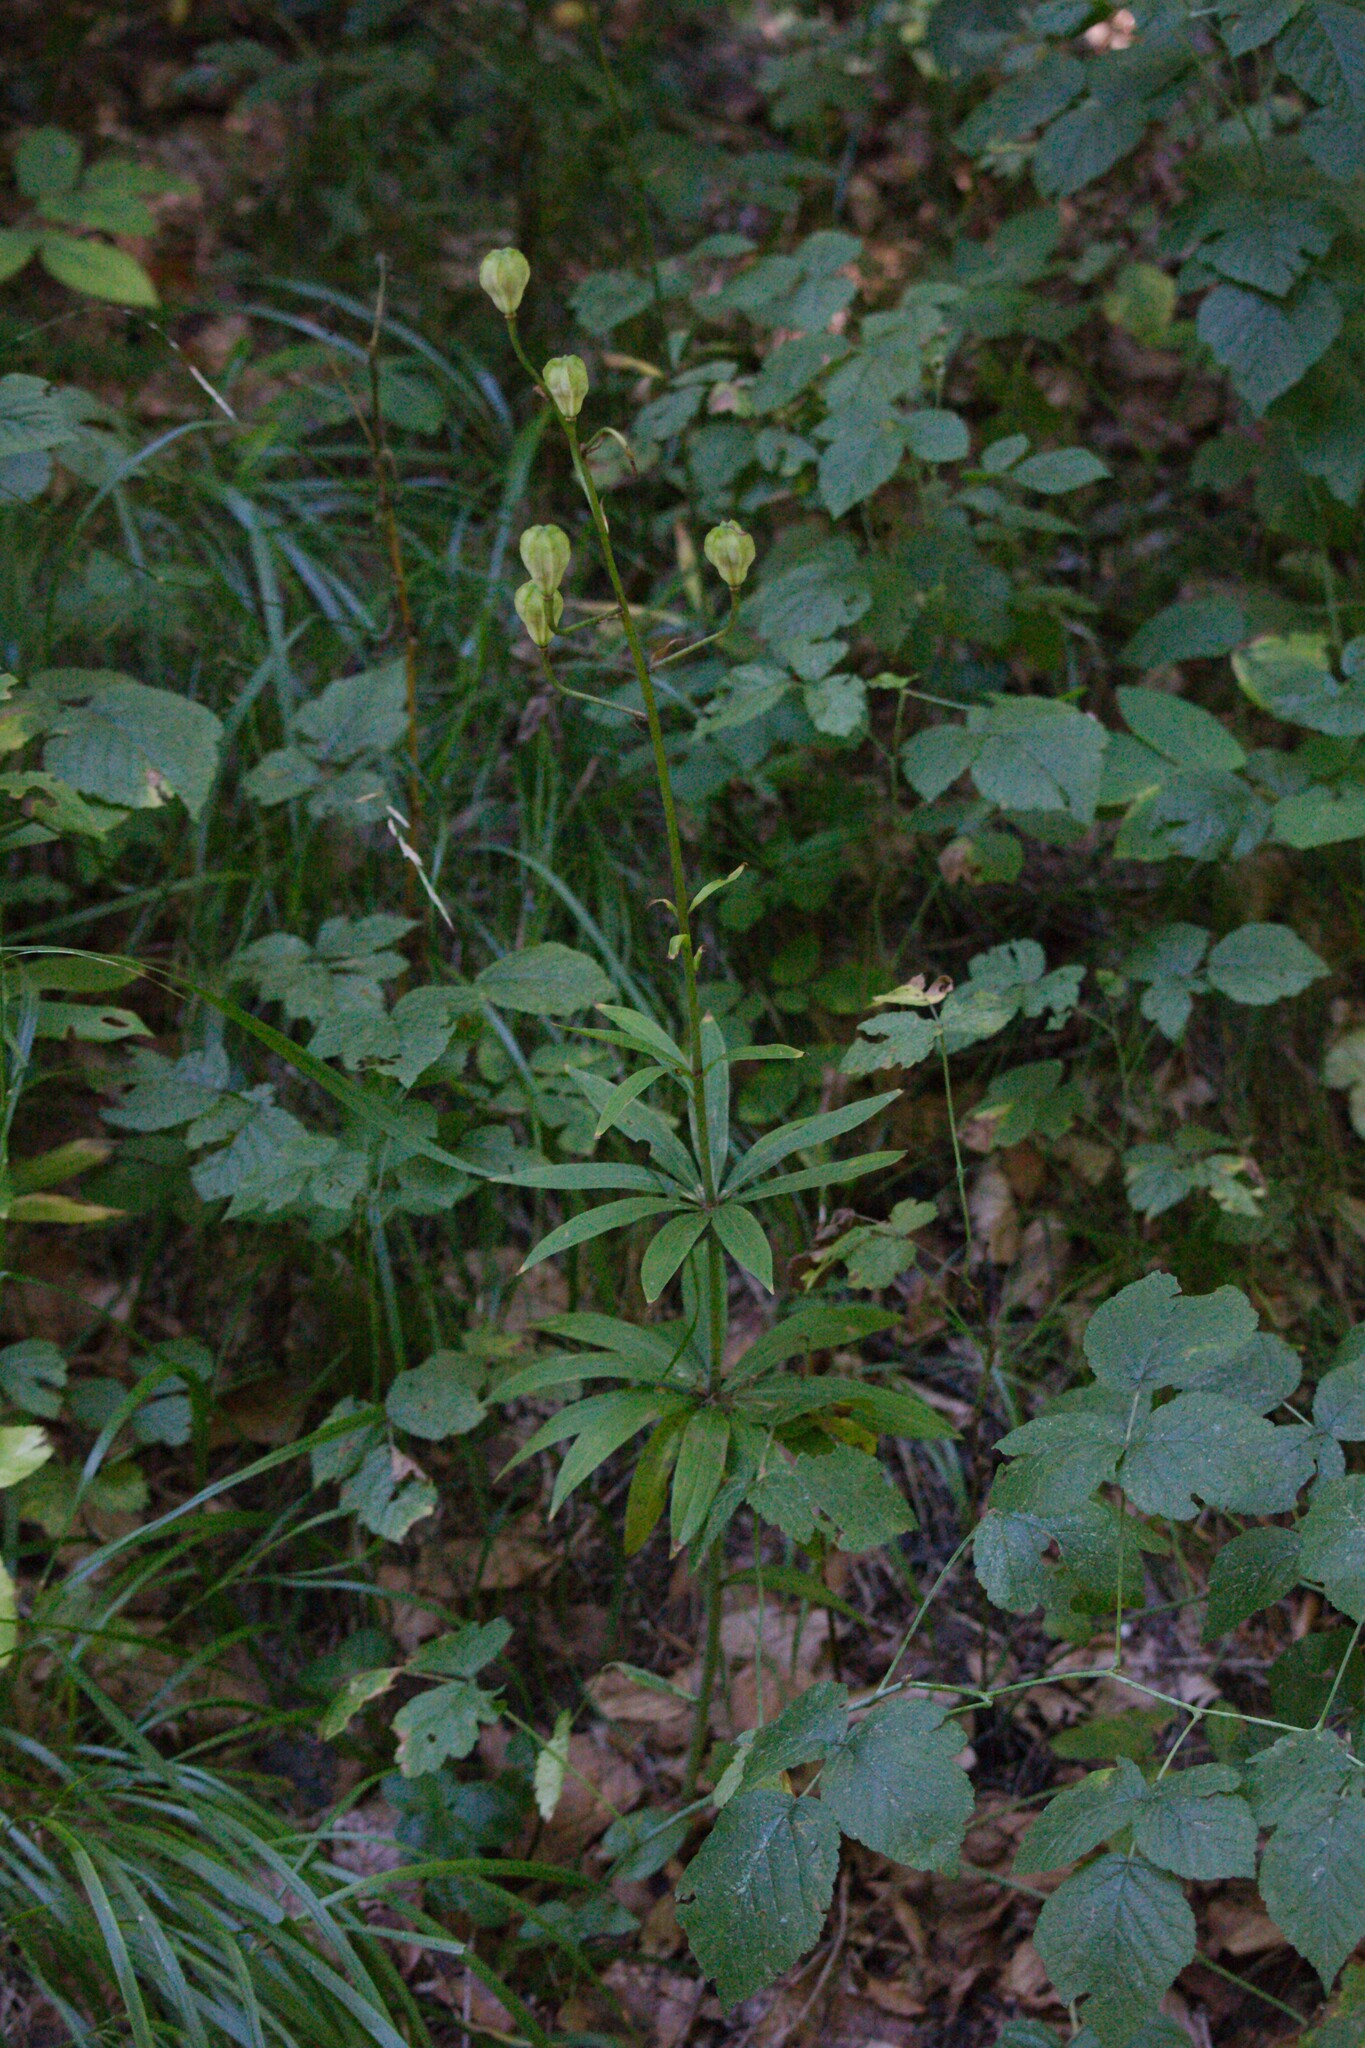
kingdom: Plantae
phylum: Tracheophyta
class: Liliopsida
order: Liliales
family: Liliaceae
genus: Lilium
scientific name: Lilium martagon
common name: Martagon lily
